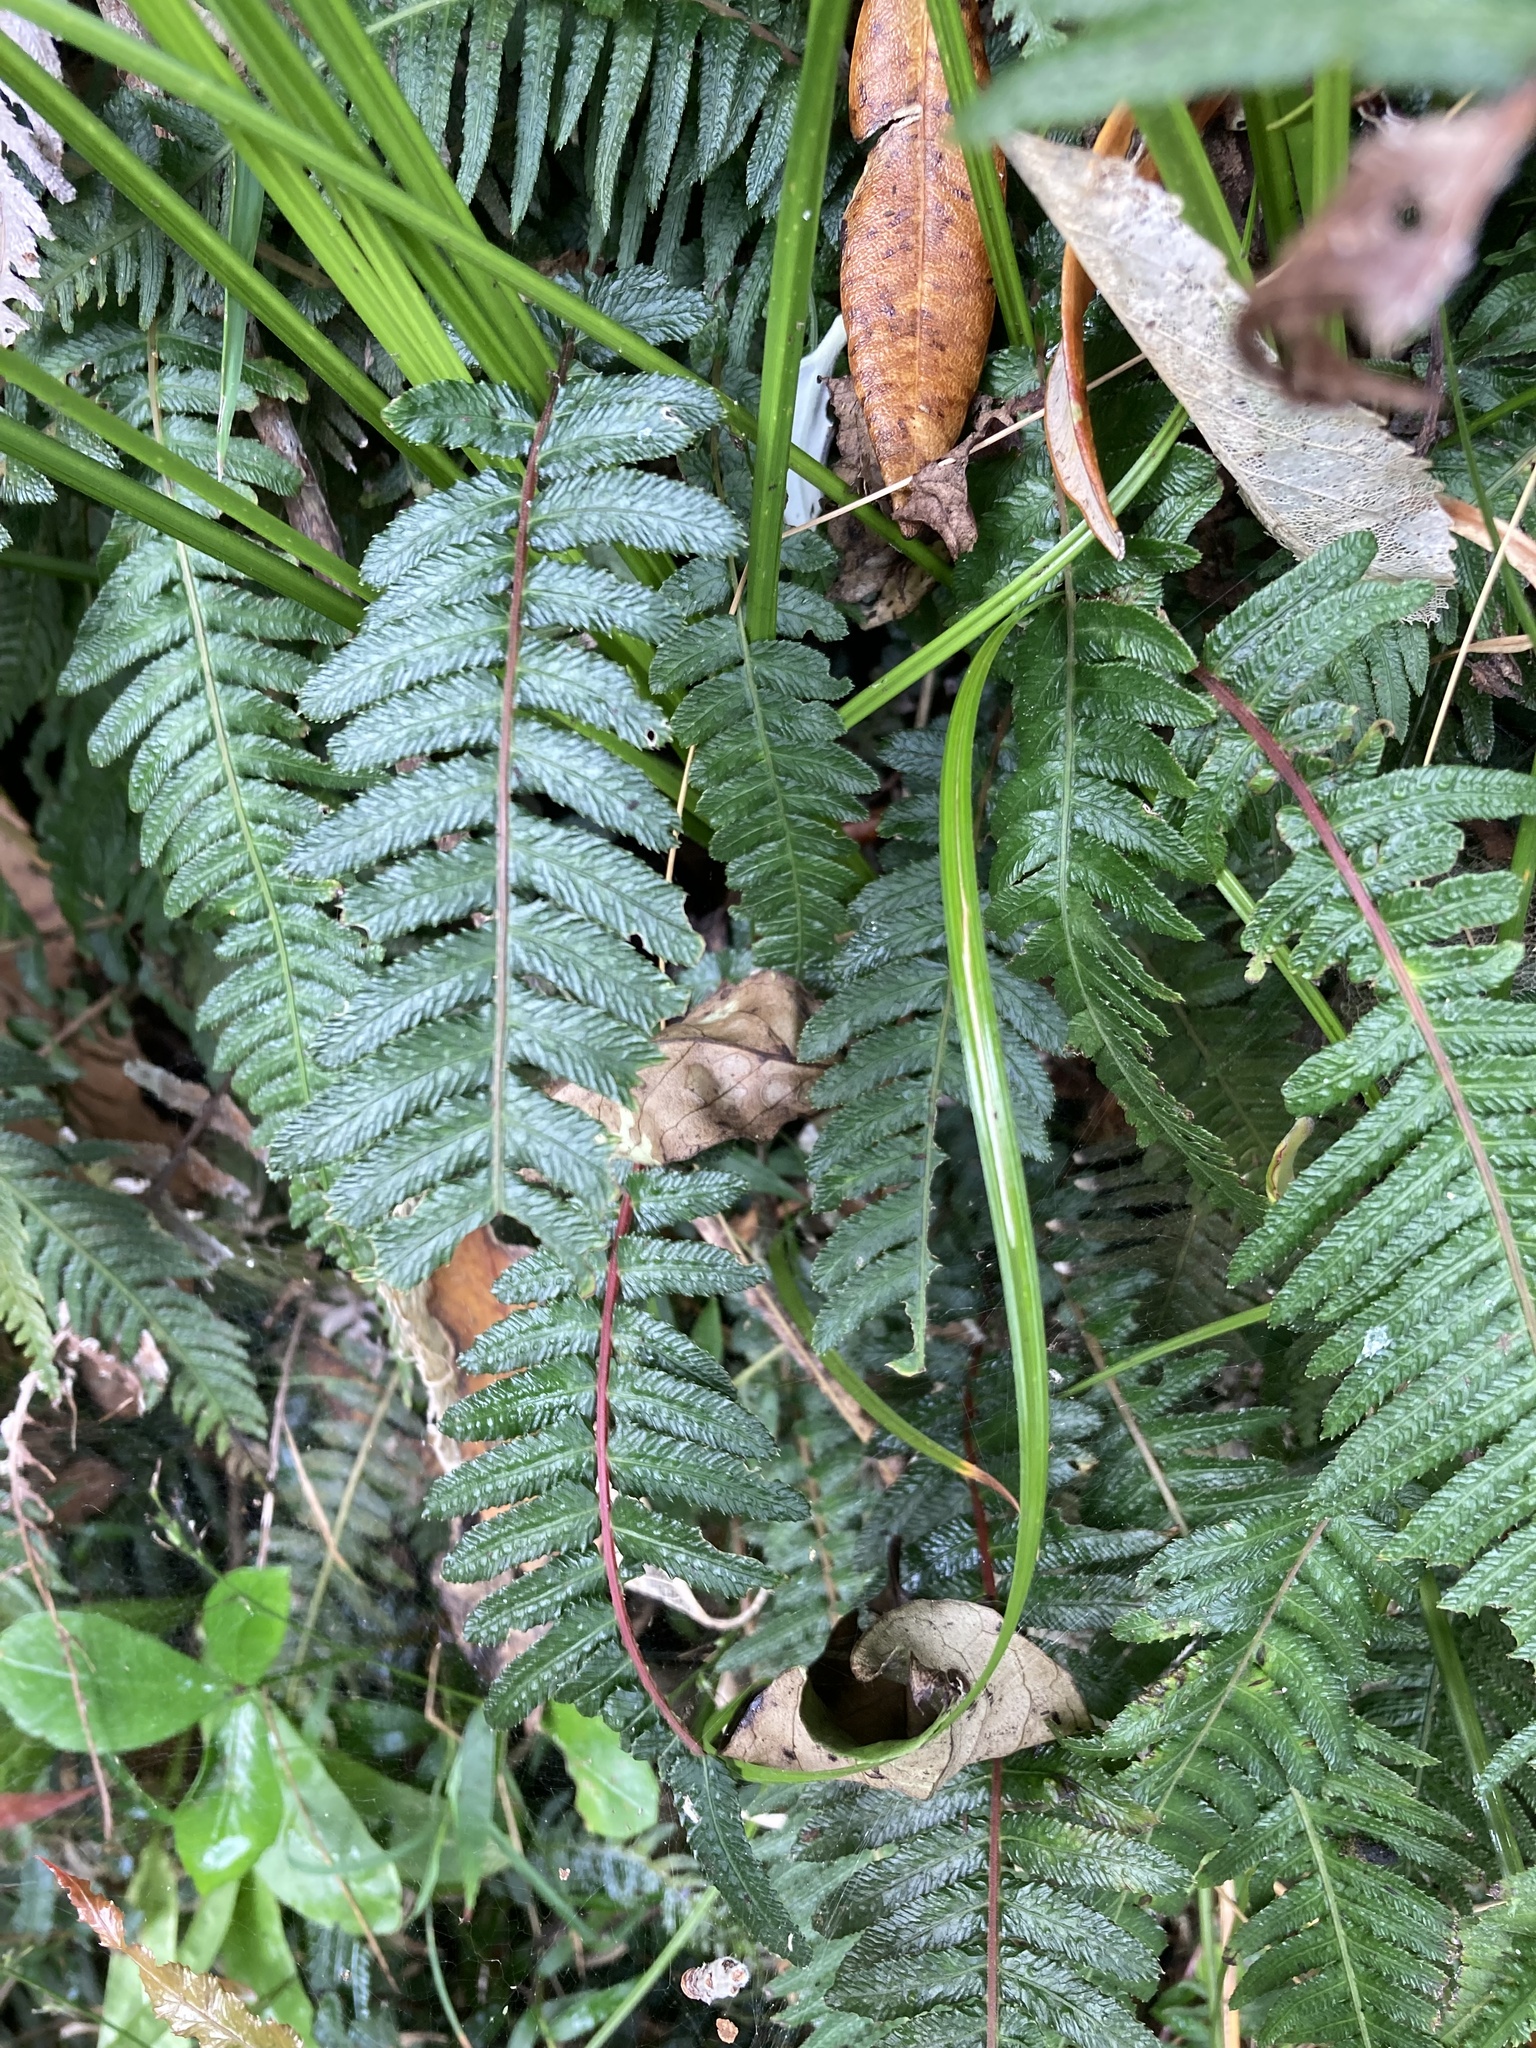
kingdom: Plantae
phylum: Tracheophyta
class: Polypodiopsida
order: Polypodiales
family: Blechnaceae
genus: Doodia
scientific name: Doodia australis
